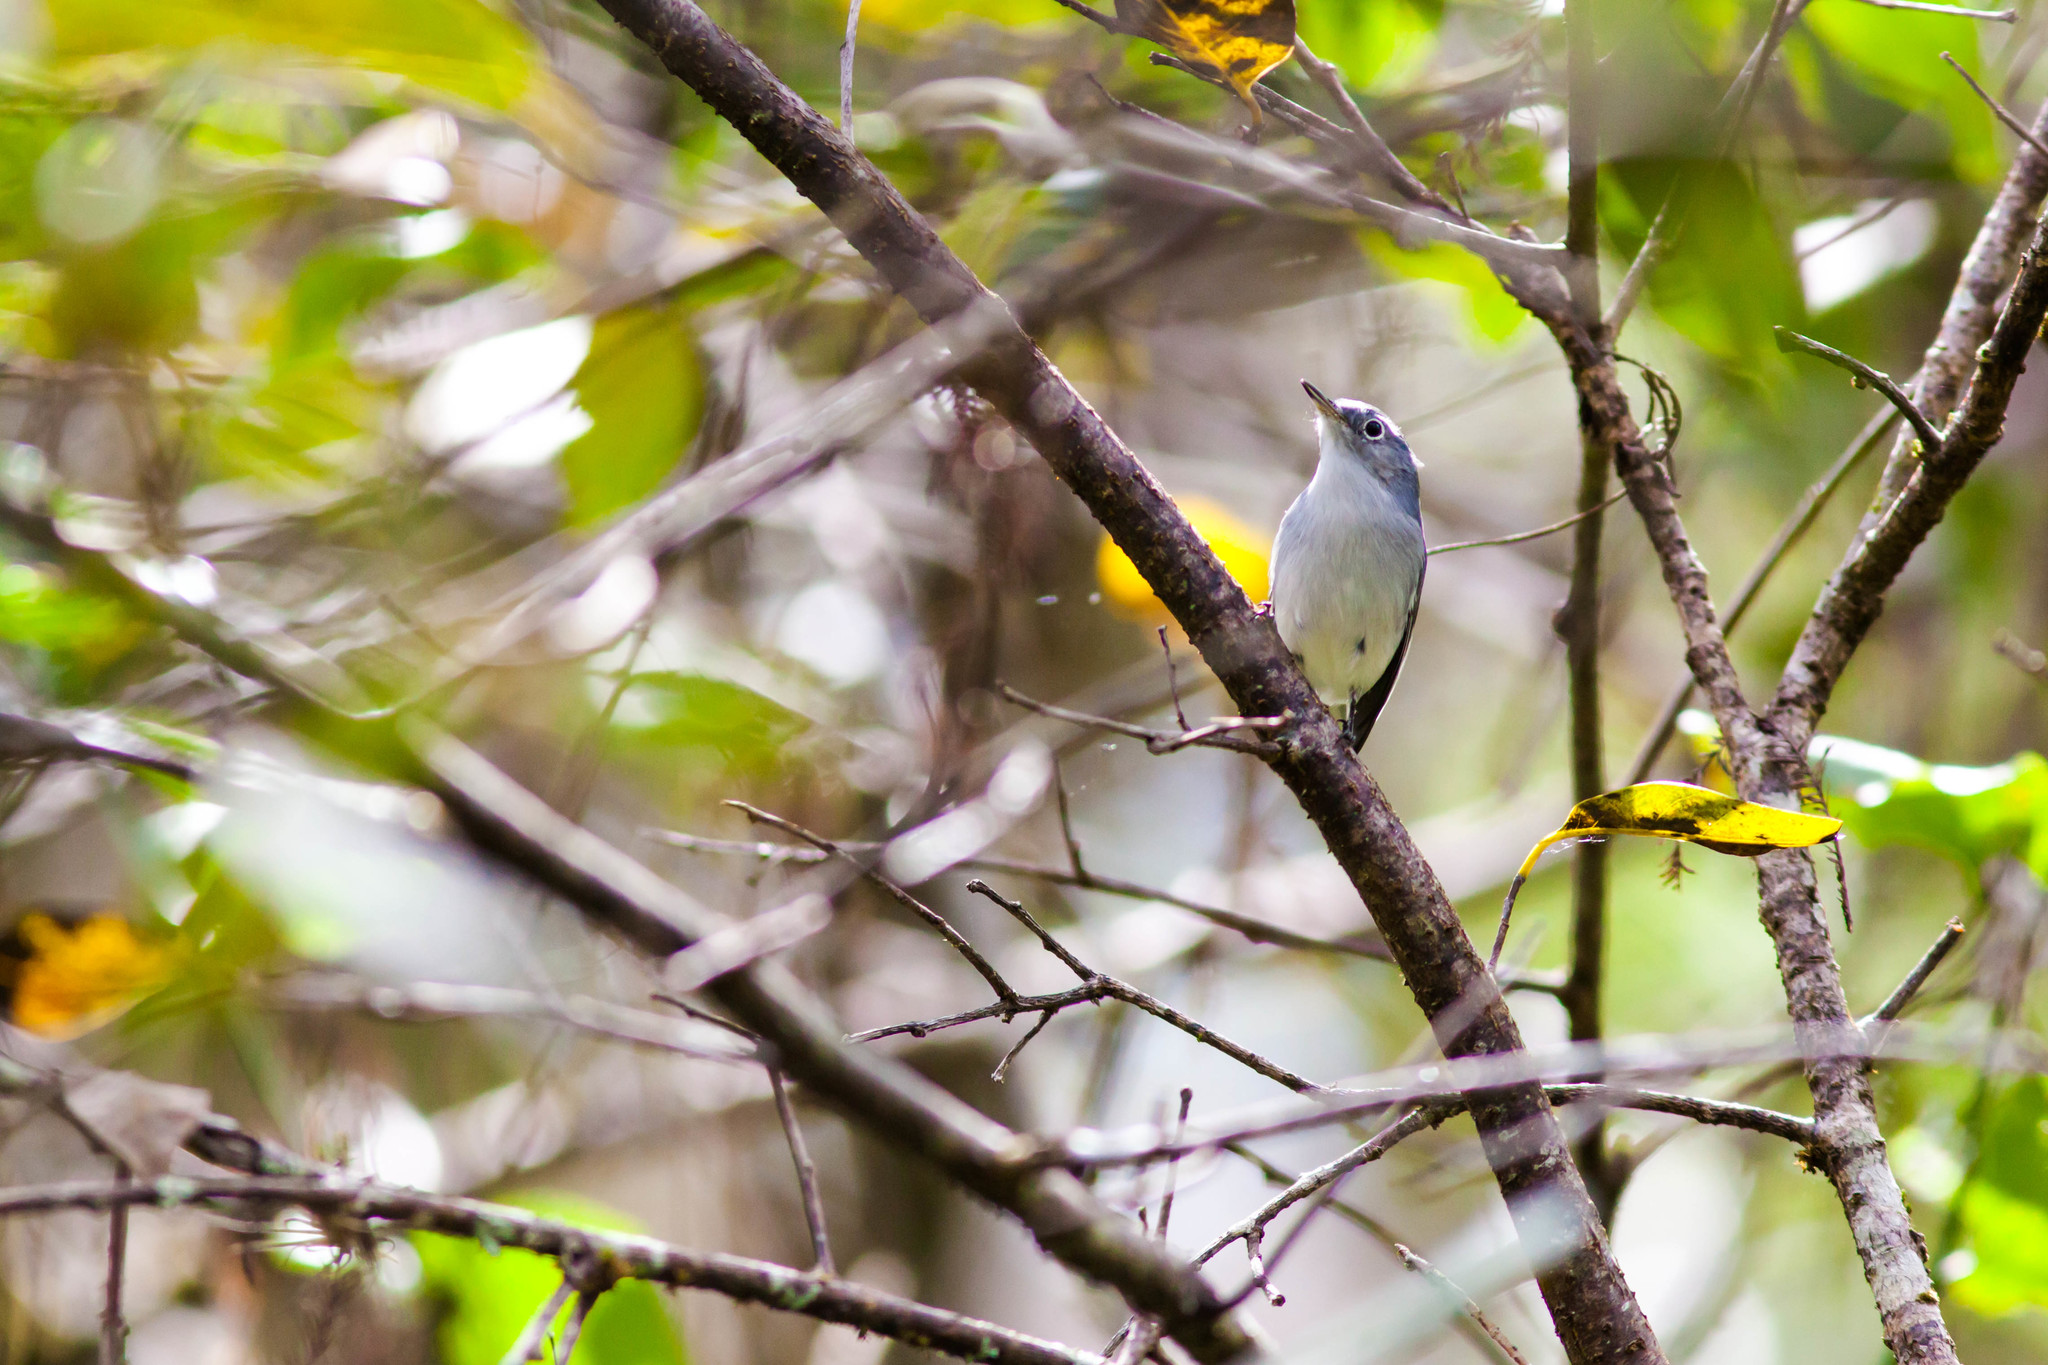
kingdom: Animalia
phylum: Chordata
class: Aves
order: Passeriformes
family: Polioptilidae
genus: Polioptila
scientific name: Polioptila caerulea
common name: Blue-gray gnatcatcher
